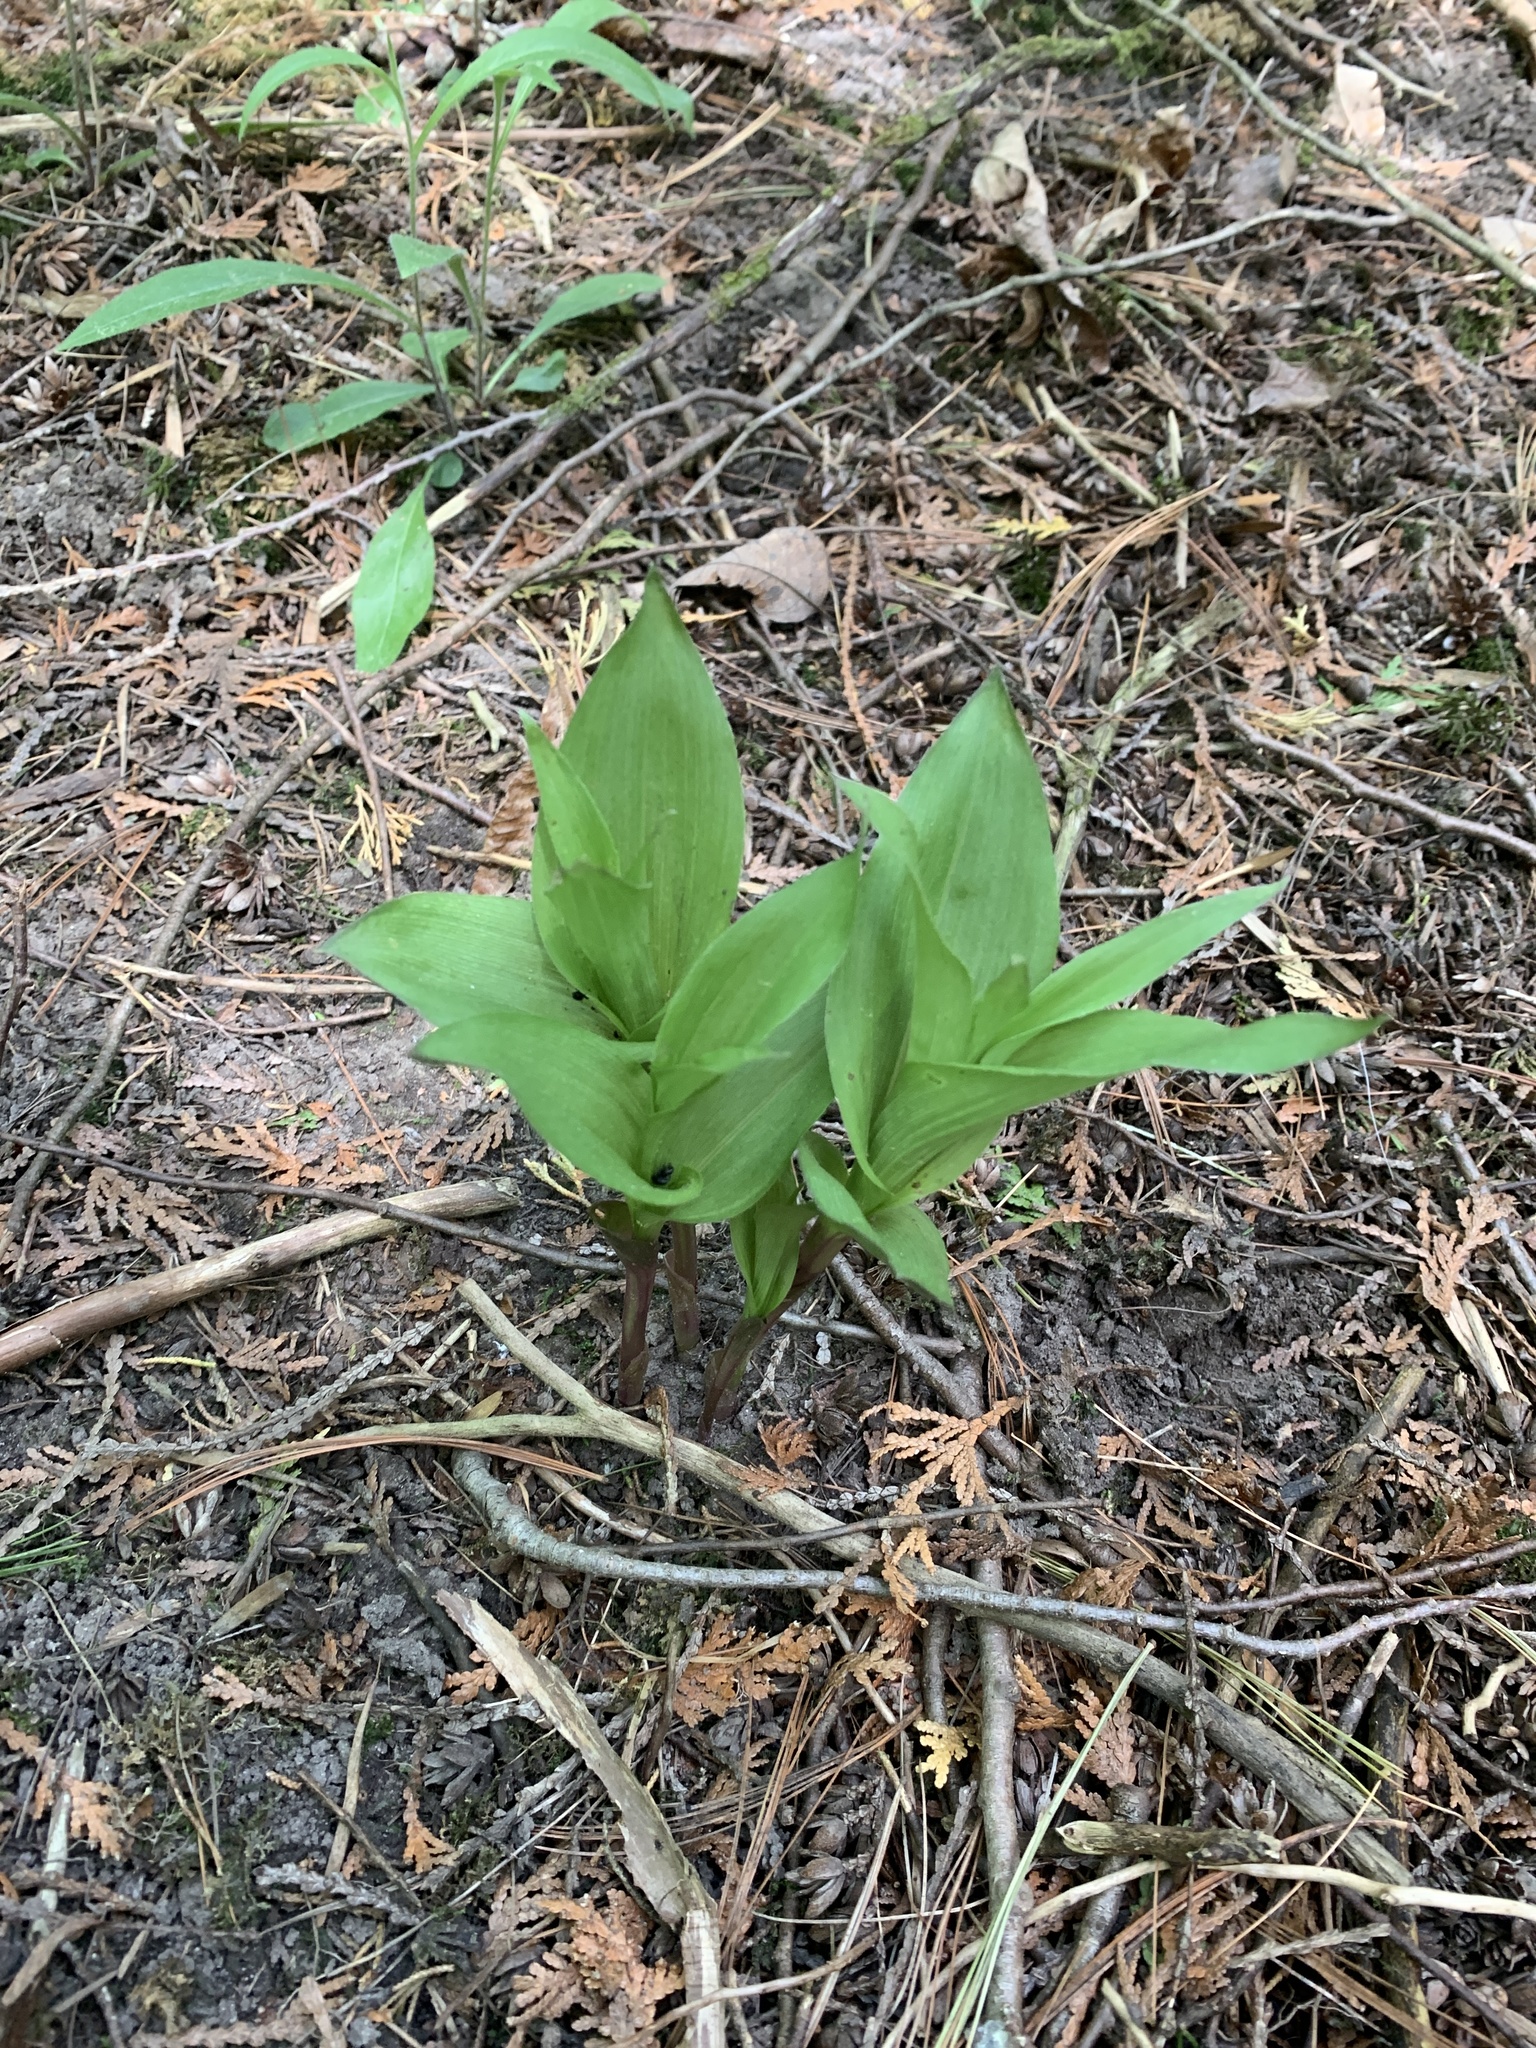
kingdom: Plantae
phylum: Tracheophyta
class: Liliopsida
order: Asparagales
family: Orchidaceae
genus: Epipactis
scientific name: Epipactis helleborine
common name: Broad-leaved helleborine
